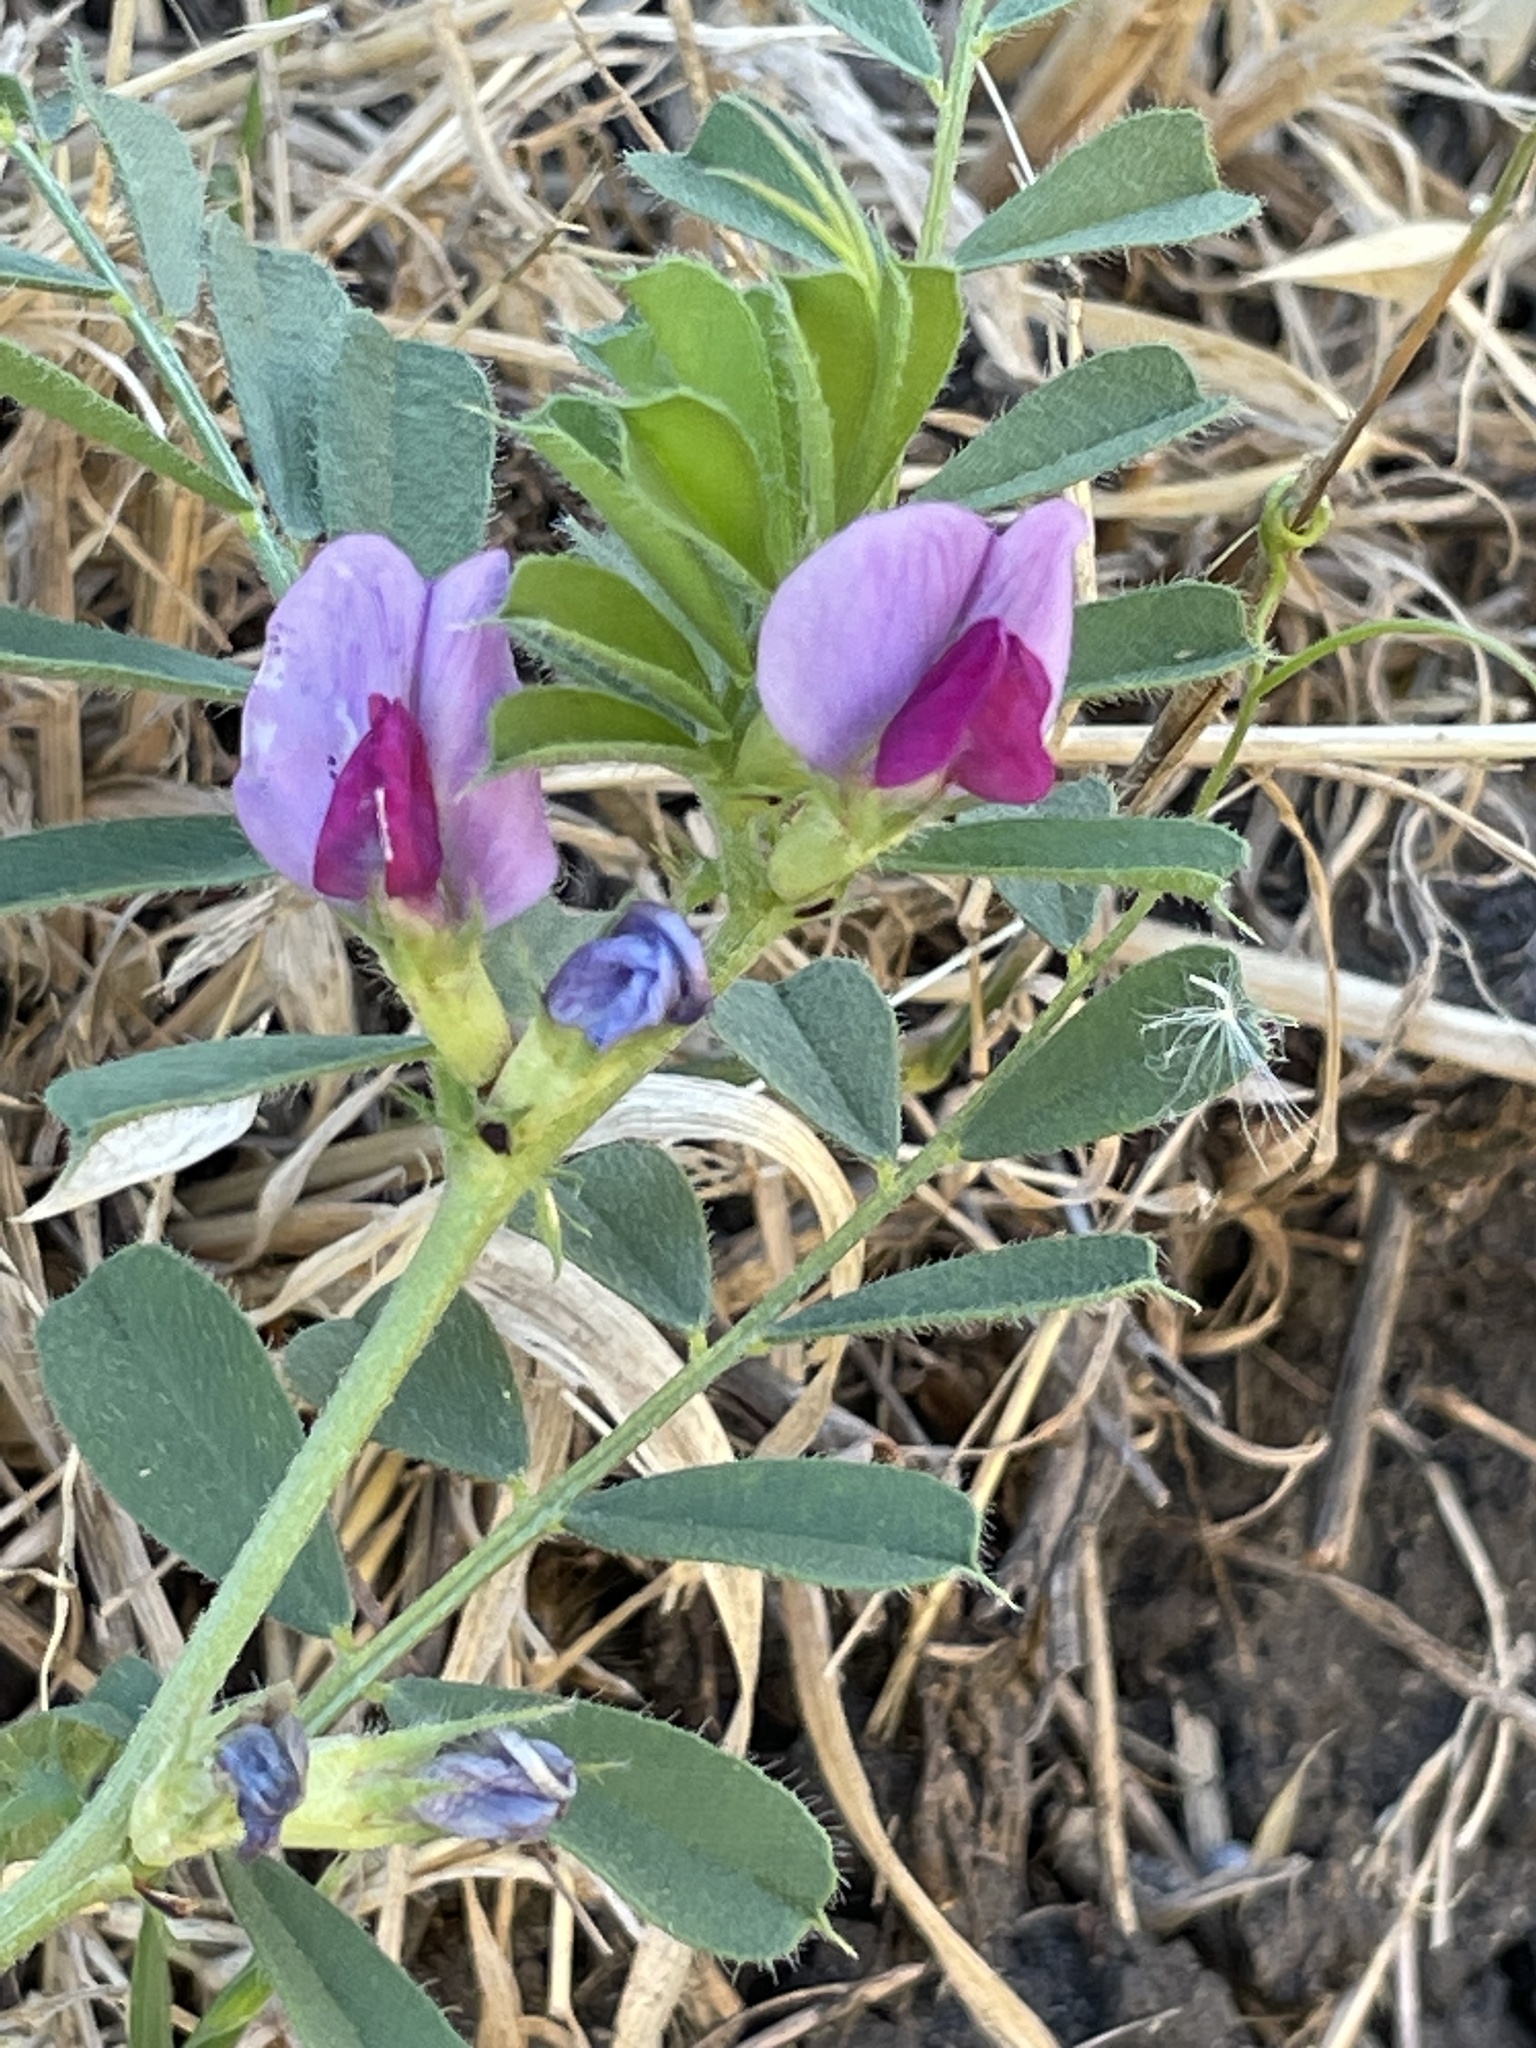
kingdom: Plantae
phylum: Tracheophyta
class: Magnoliopsida
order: Fabales
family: Fabaceae
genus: Vicia
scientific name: Vicia sativa
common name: Garden vetch
